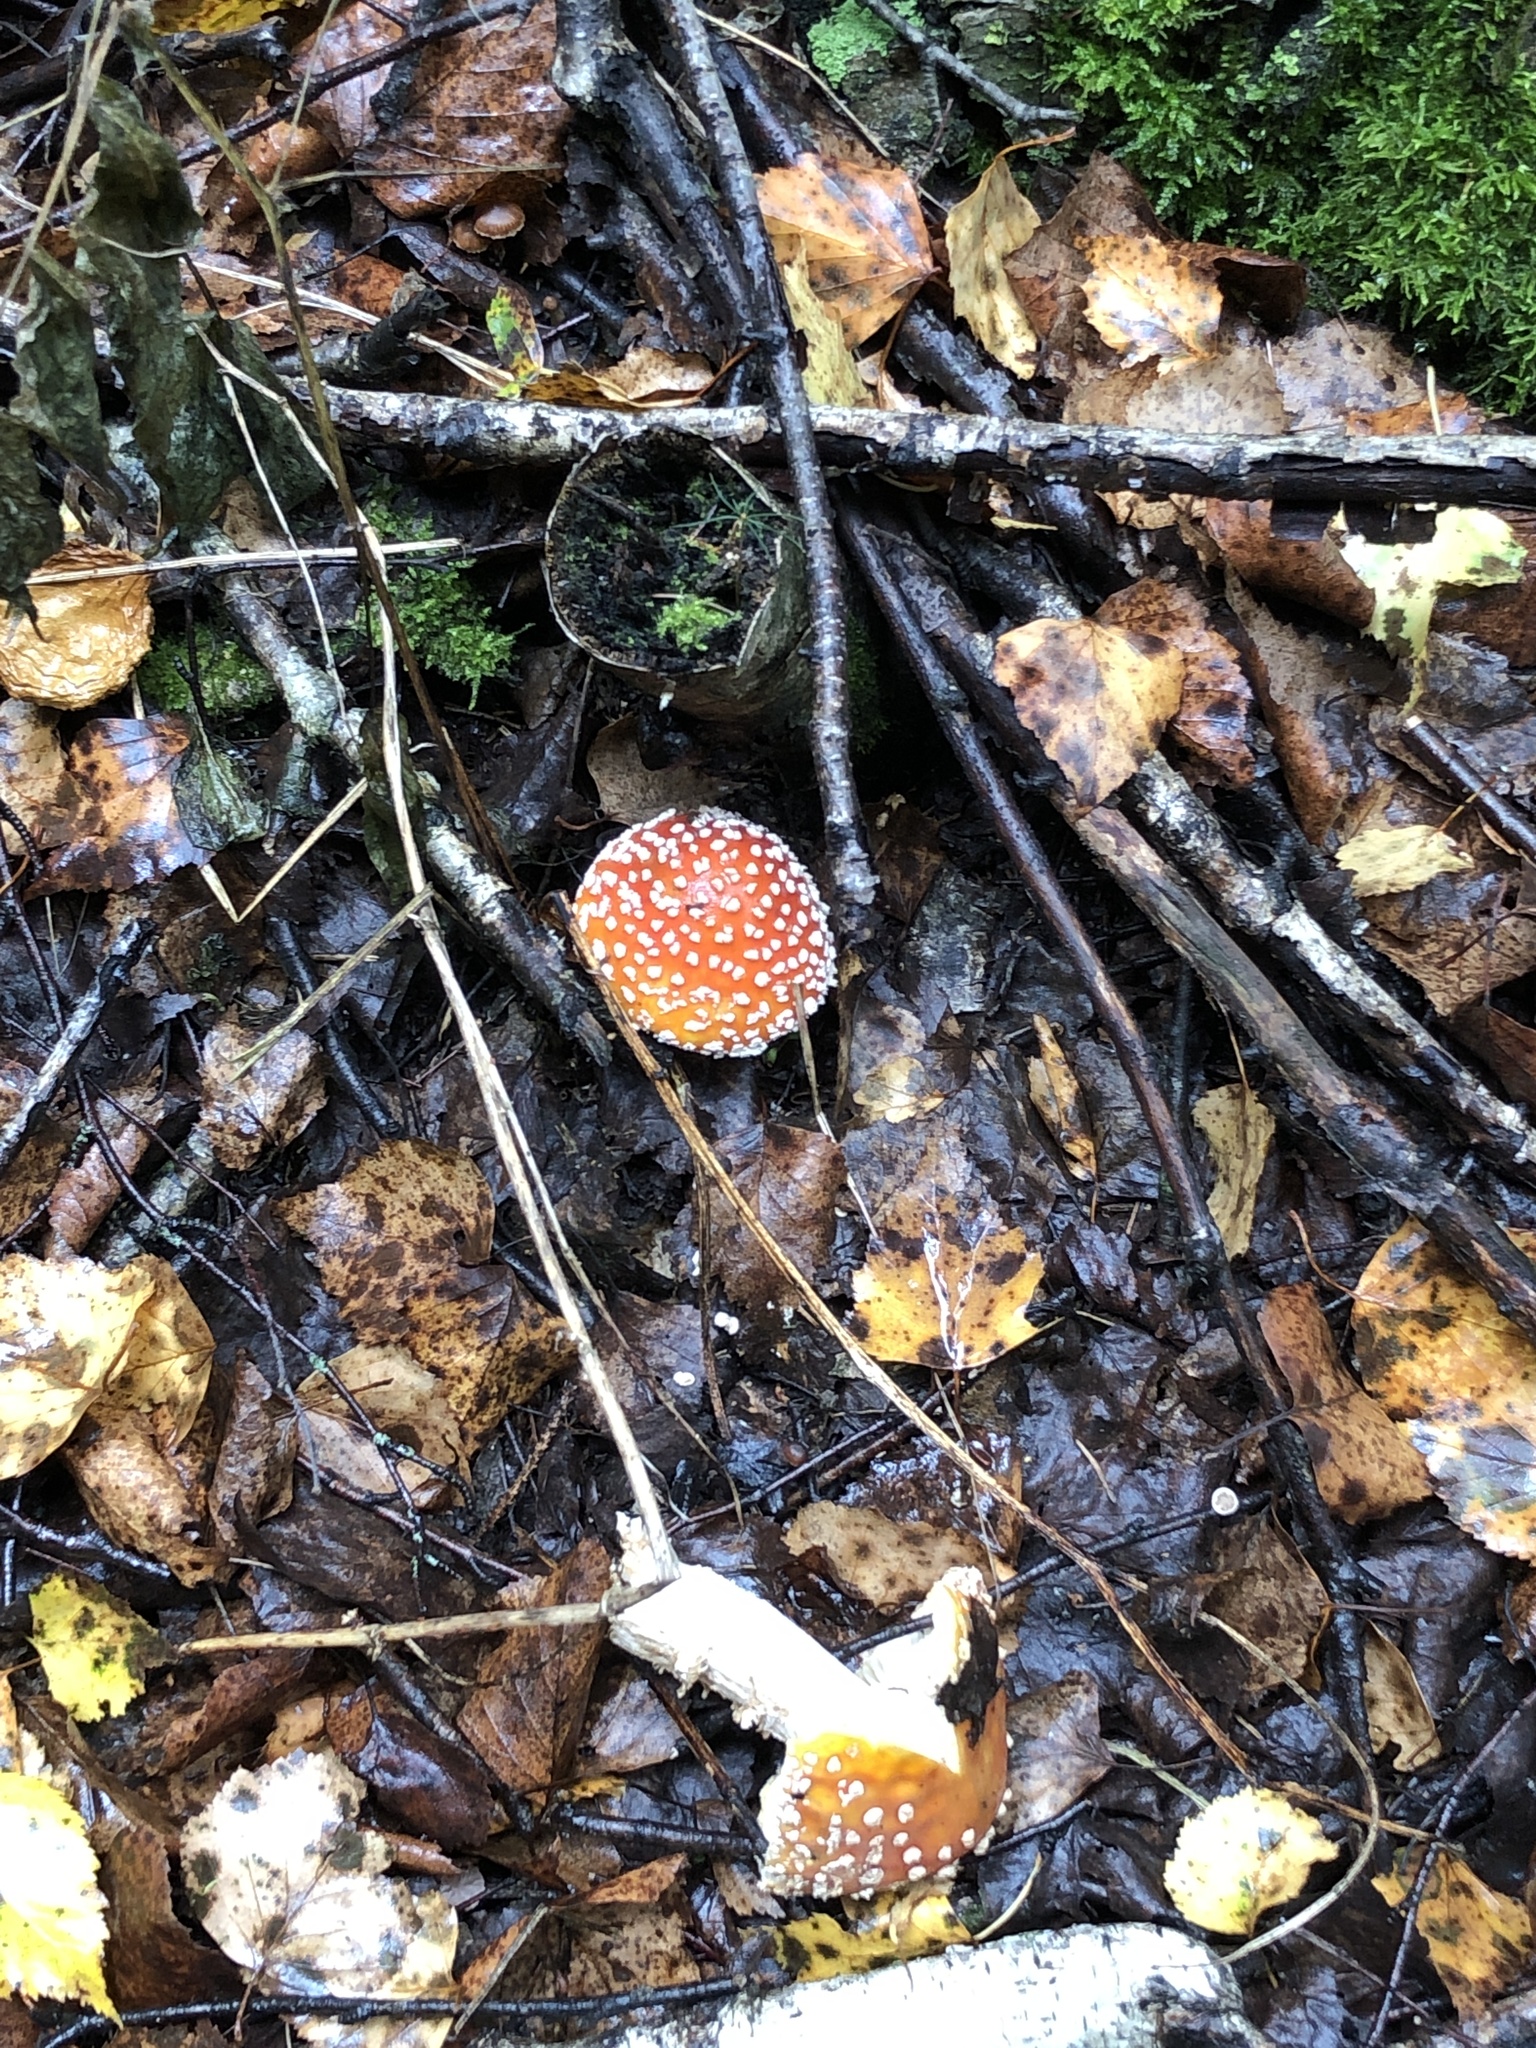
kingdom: Fungi
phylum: Basidiomycota
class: Agaricomycetes
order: Agaricales
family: Amanitaceae
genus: Amanita
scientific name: Amanita muscaria
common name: Fly agaric
